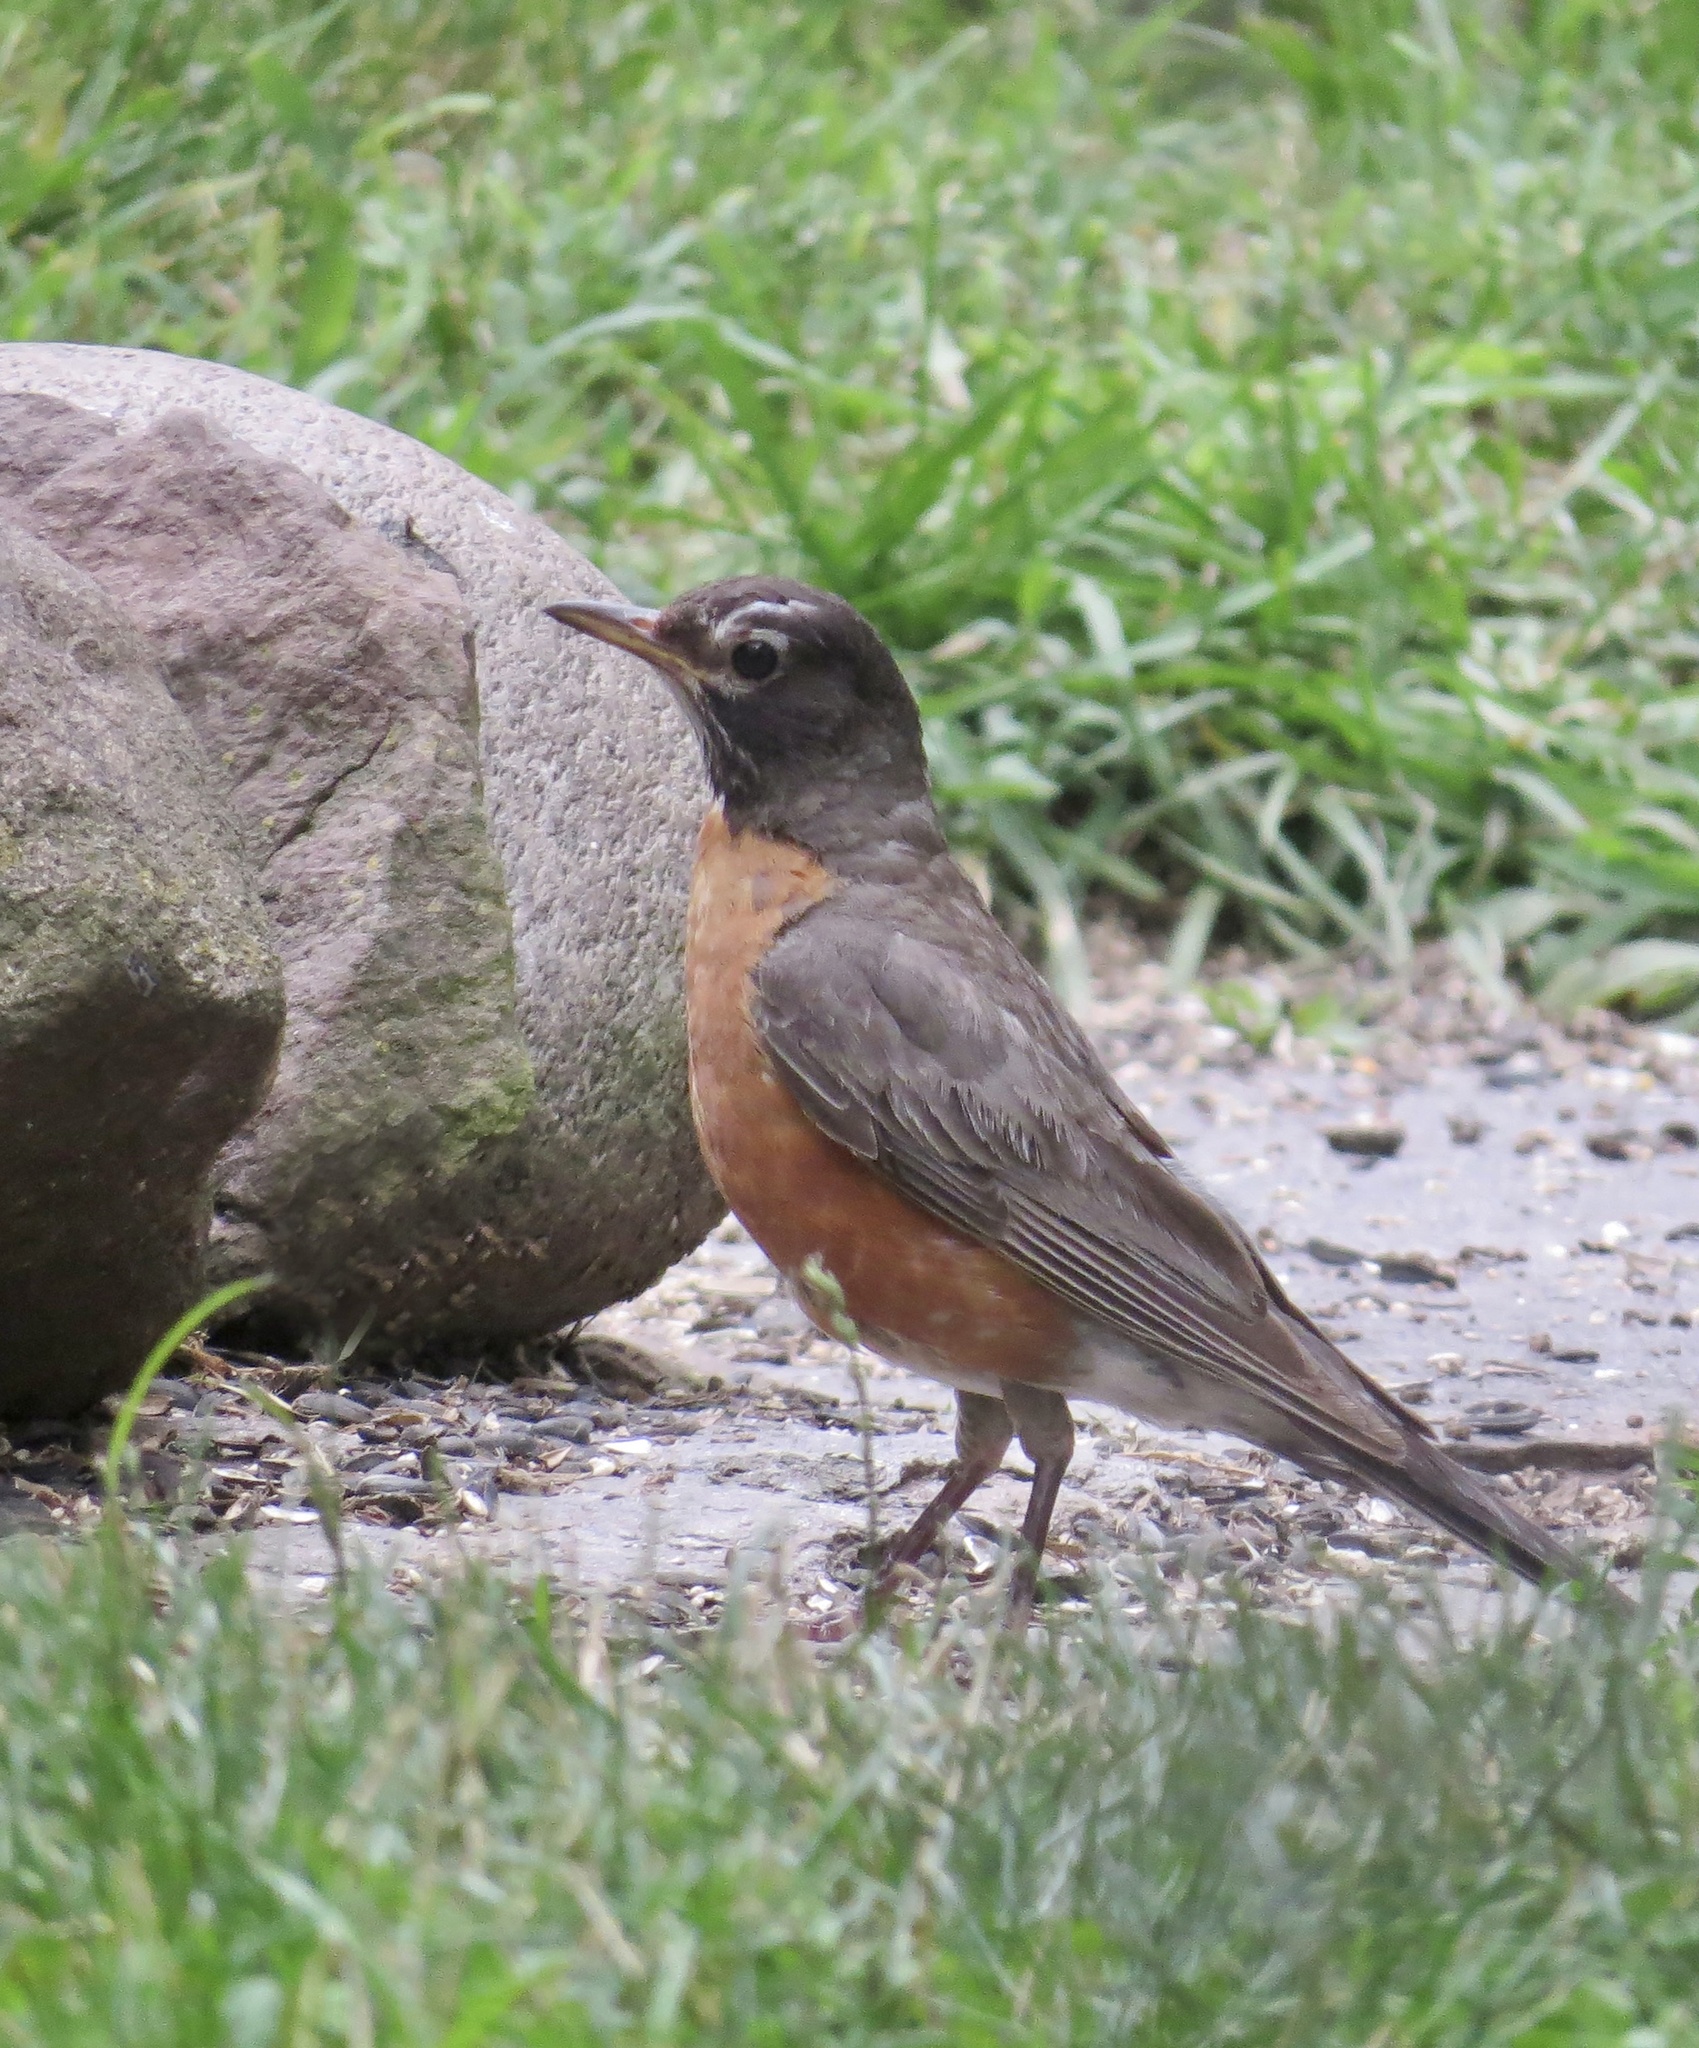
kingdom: Animalia
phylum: Chordata
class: Aves
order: Passeriformes
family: Turdidae
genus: Turdus
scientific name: Turdus migratorius
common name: American robin
